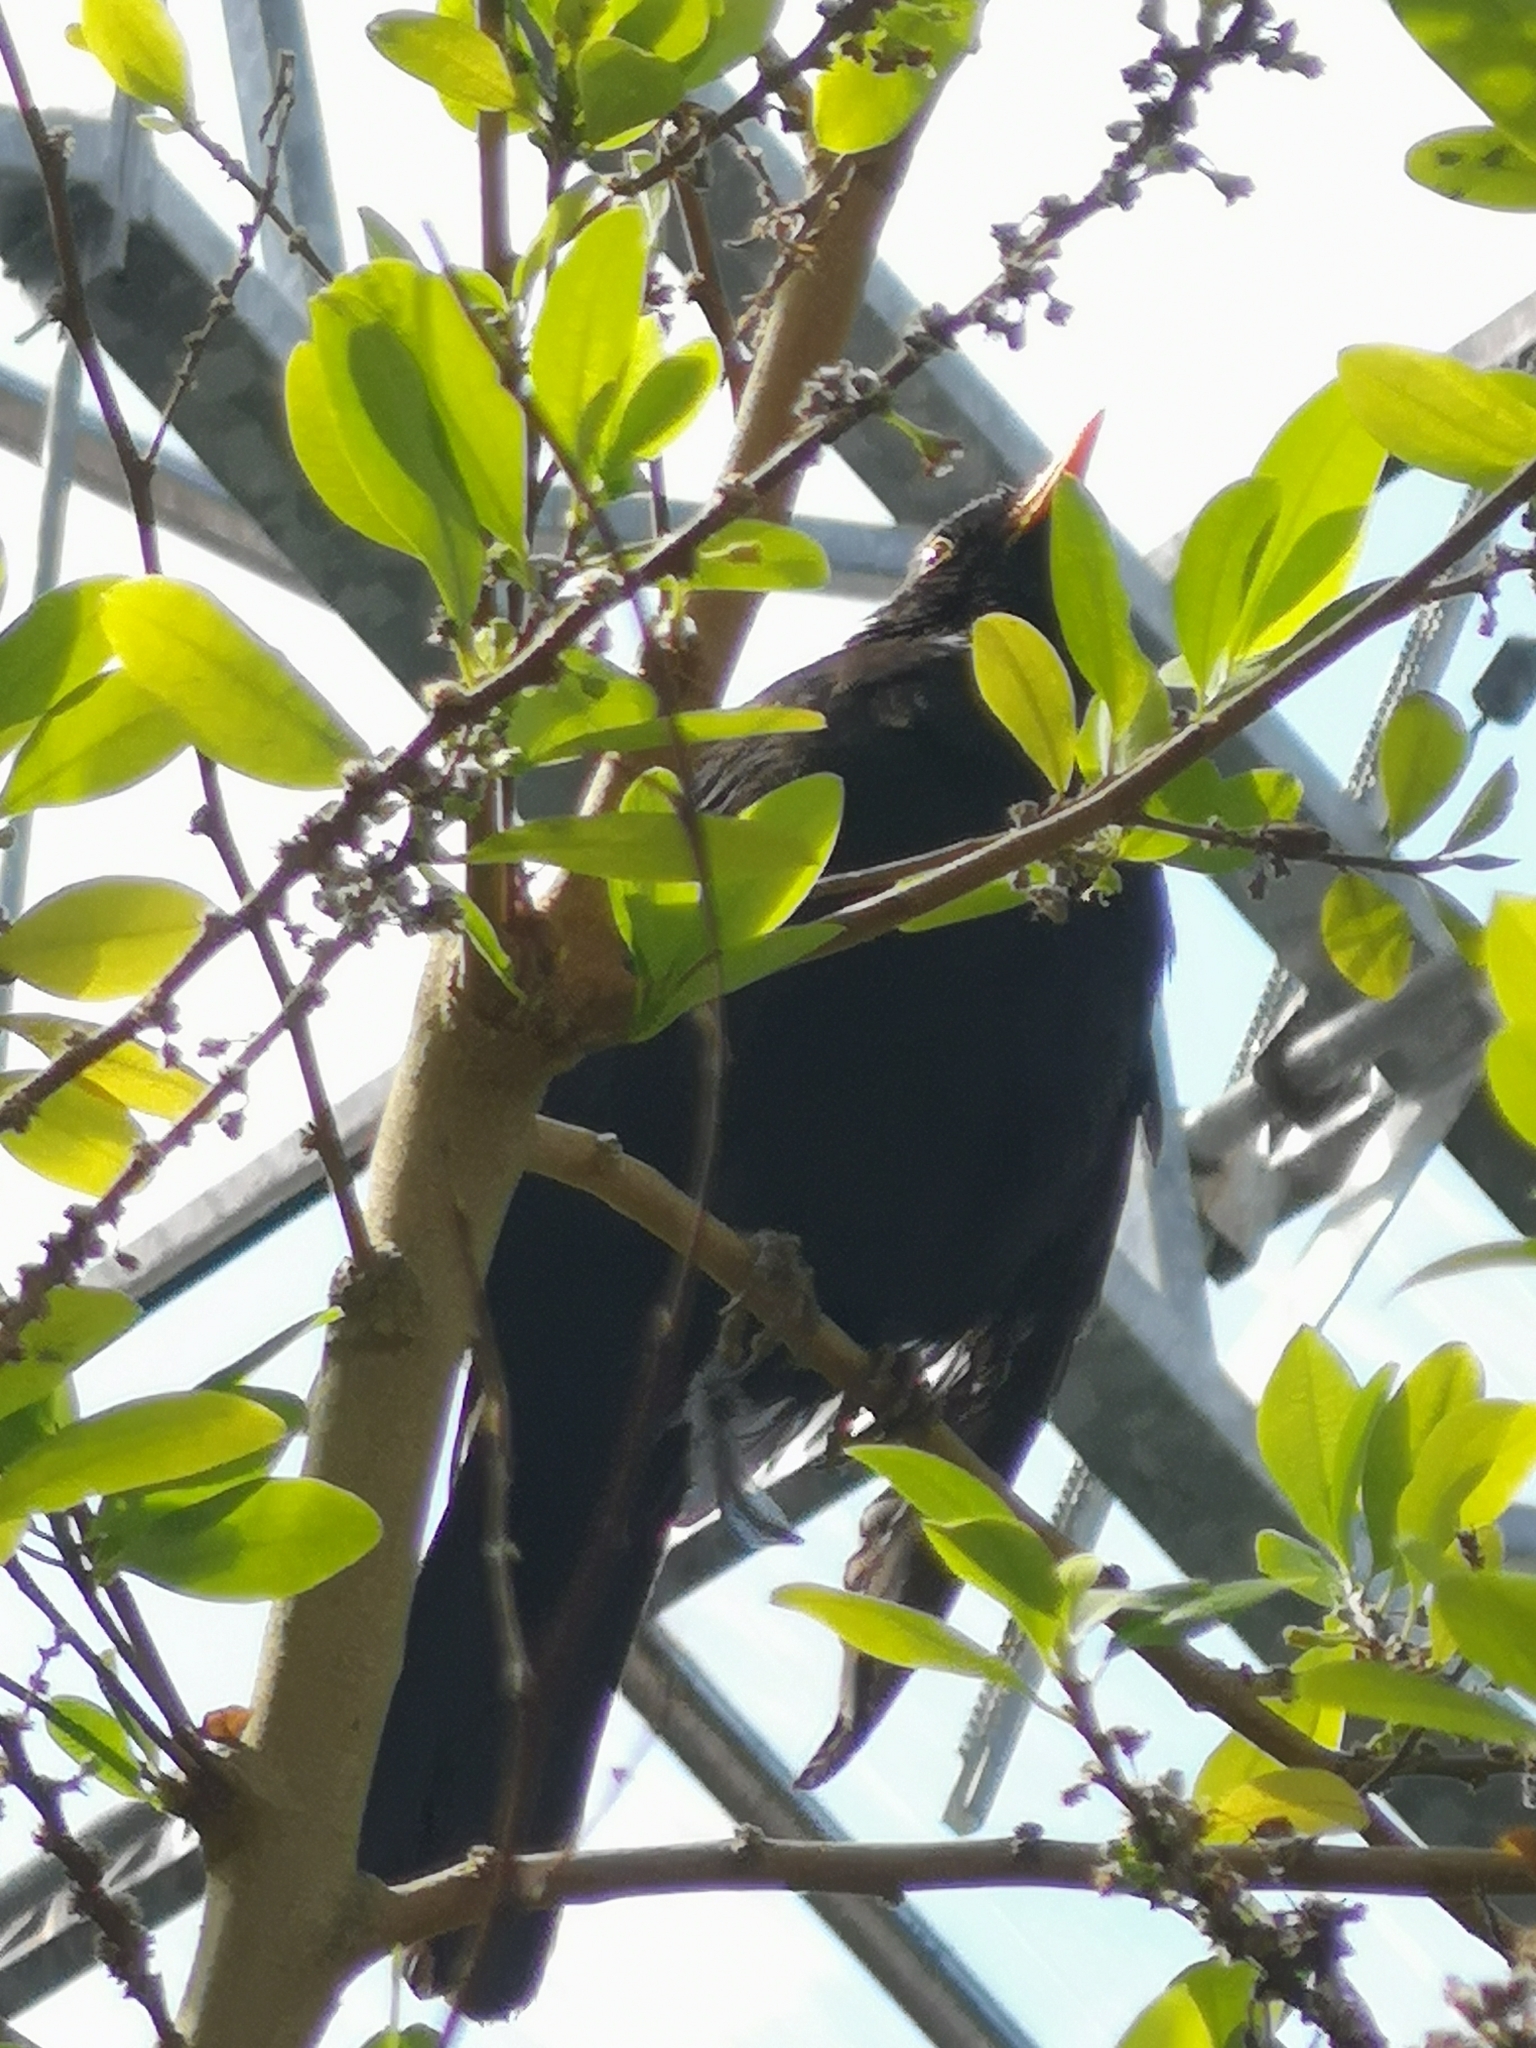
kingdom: Animalia
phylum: Chordata
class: Aves
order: Passeriformes
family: Turdidae
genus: Turdus
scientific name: Turdus merula
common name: Common blackbird
